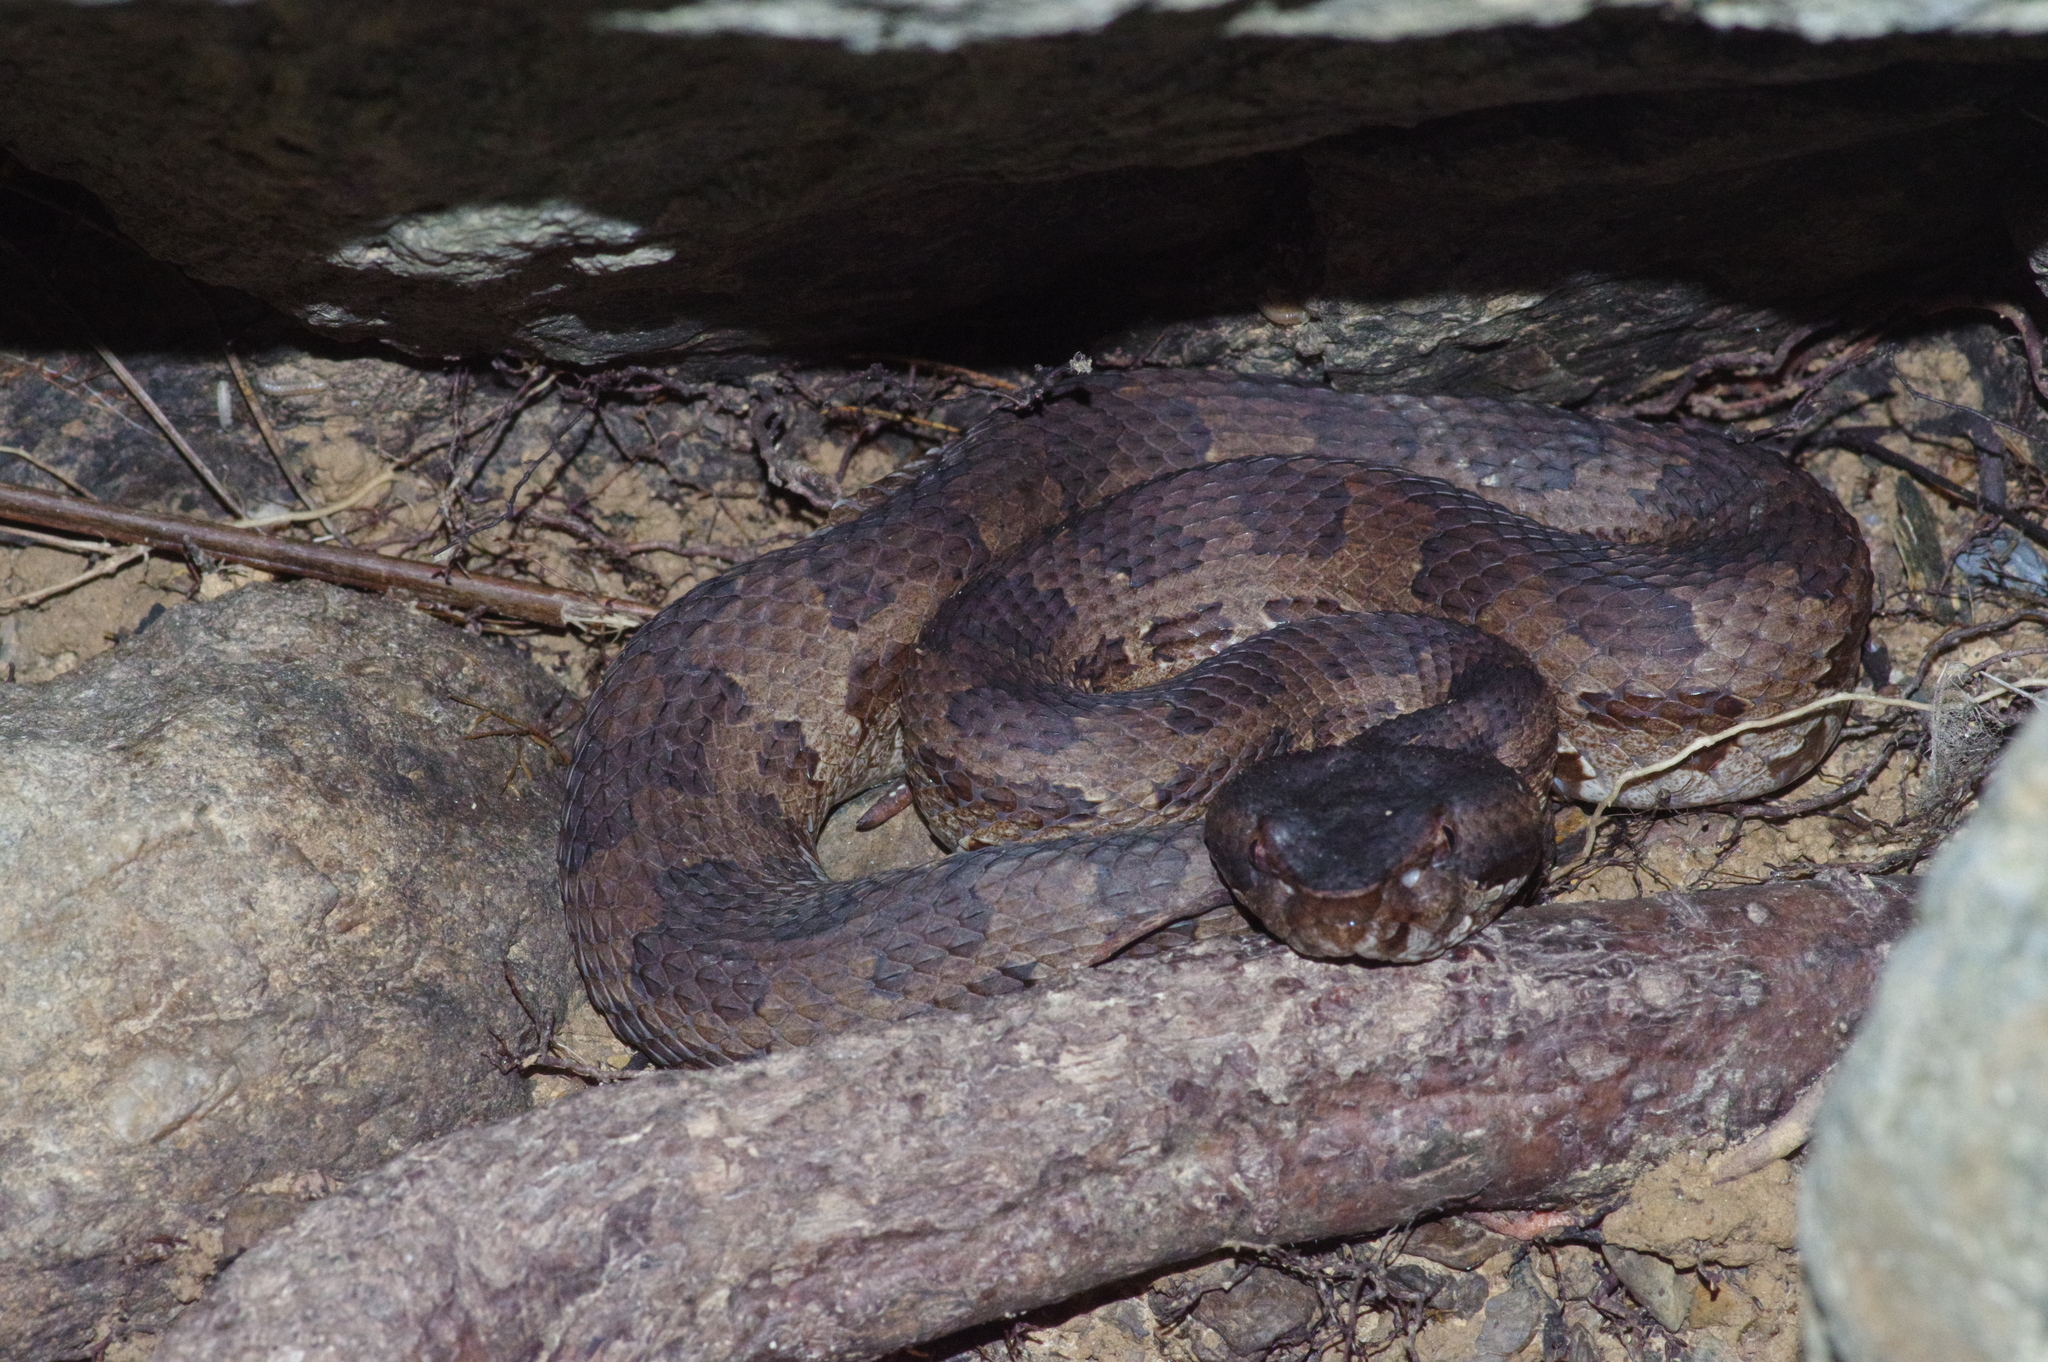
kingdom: Animalia
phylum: Chordata
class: Squamata
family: Viperidae
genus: Ovophis
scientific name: Ovophis okinavensis
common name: Okinawa pitviper
